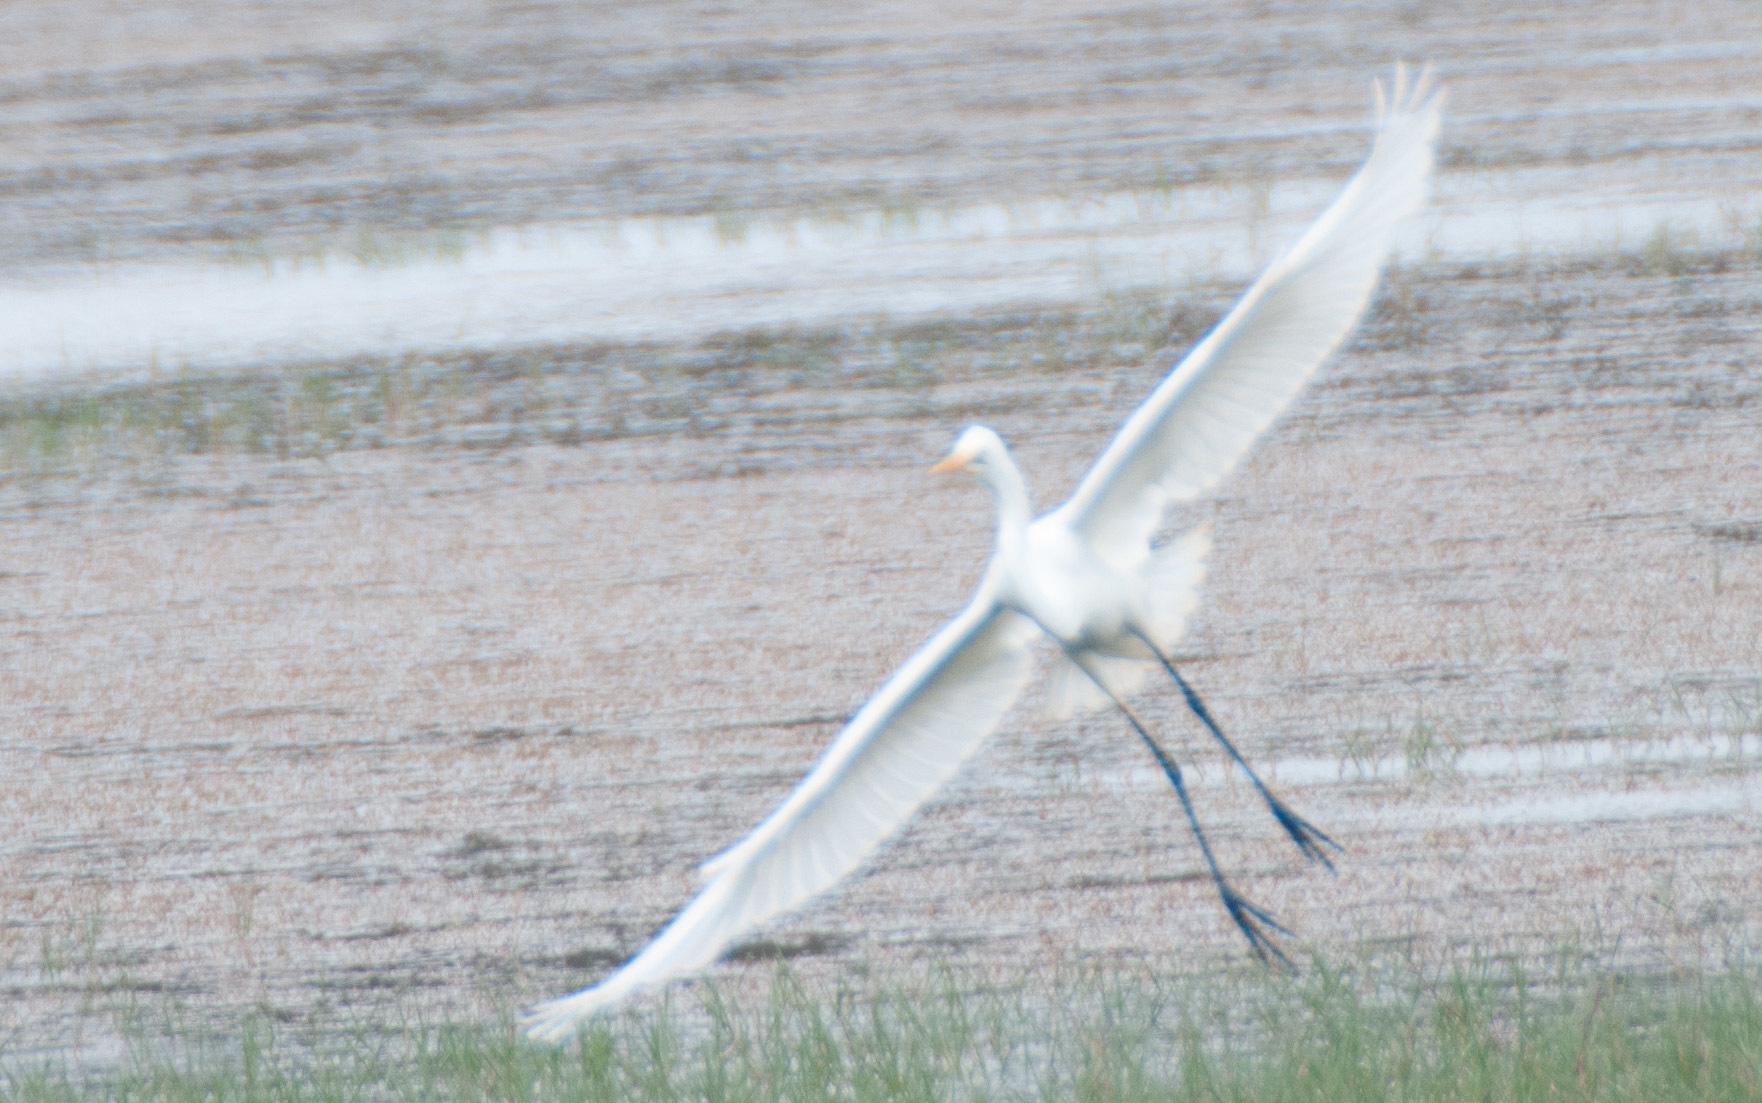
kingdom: Animalia
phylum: Chordata
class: Aves
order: Pelecaniformes
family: Ardeidae
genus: Ardea
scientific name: Ardea modesta
